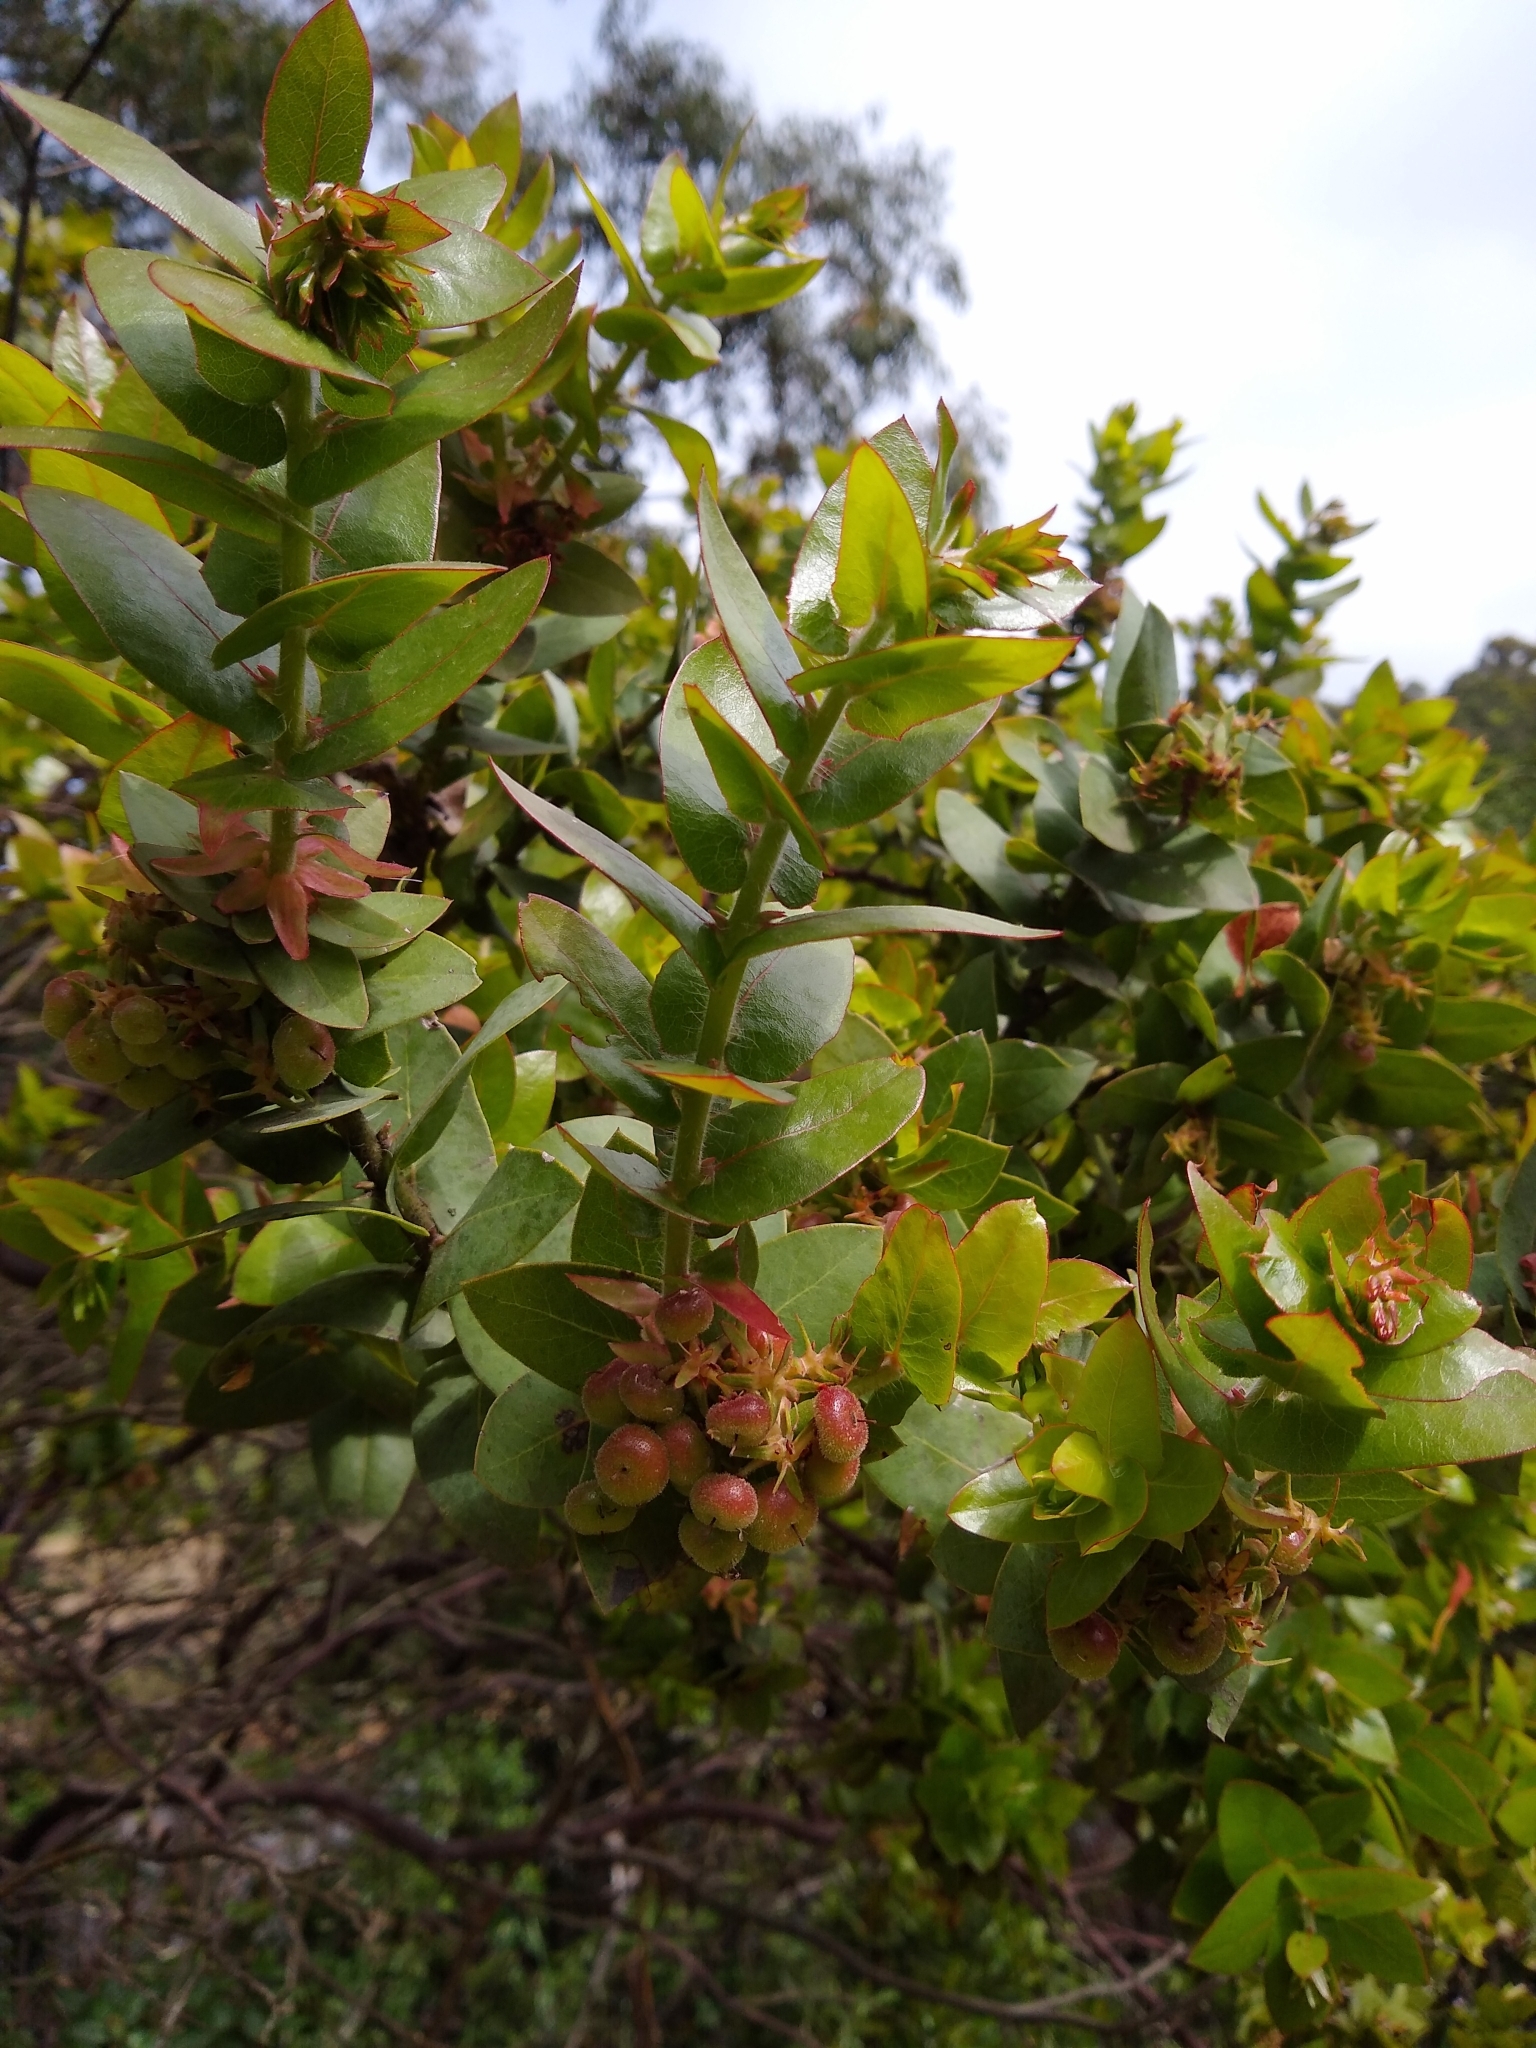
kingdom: Plantae
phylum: Tracheophyta
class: Magnoliopsida
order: Ericales
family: Ericaceae
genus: Arctostaphylos
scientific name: Arctostaphylos pallida
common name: Pallid manzanita
